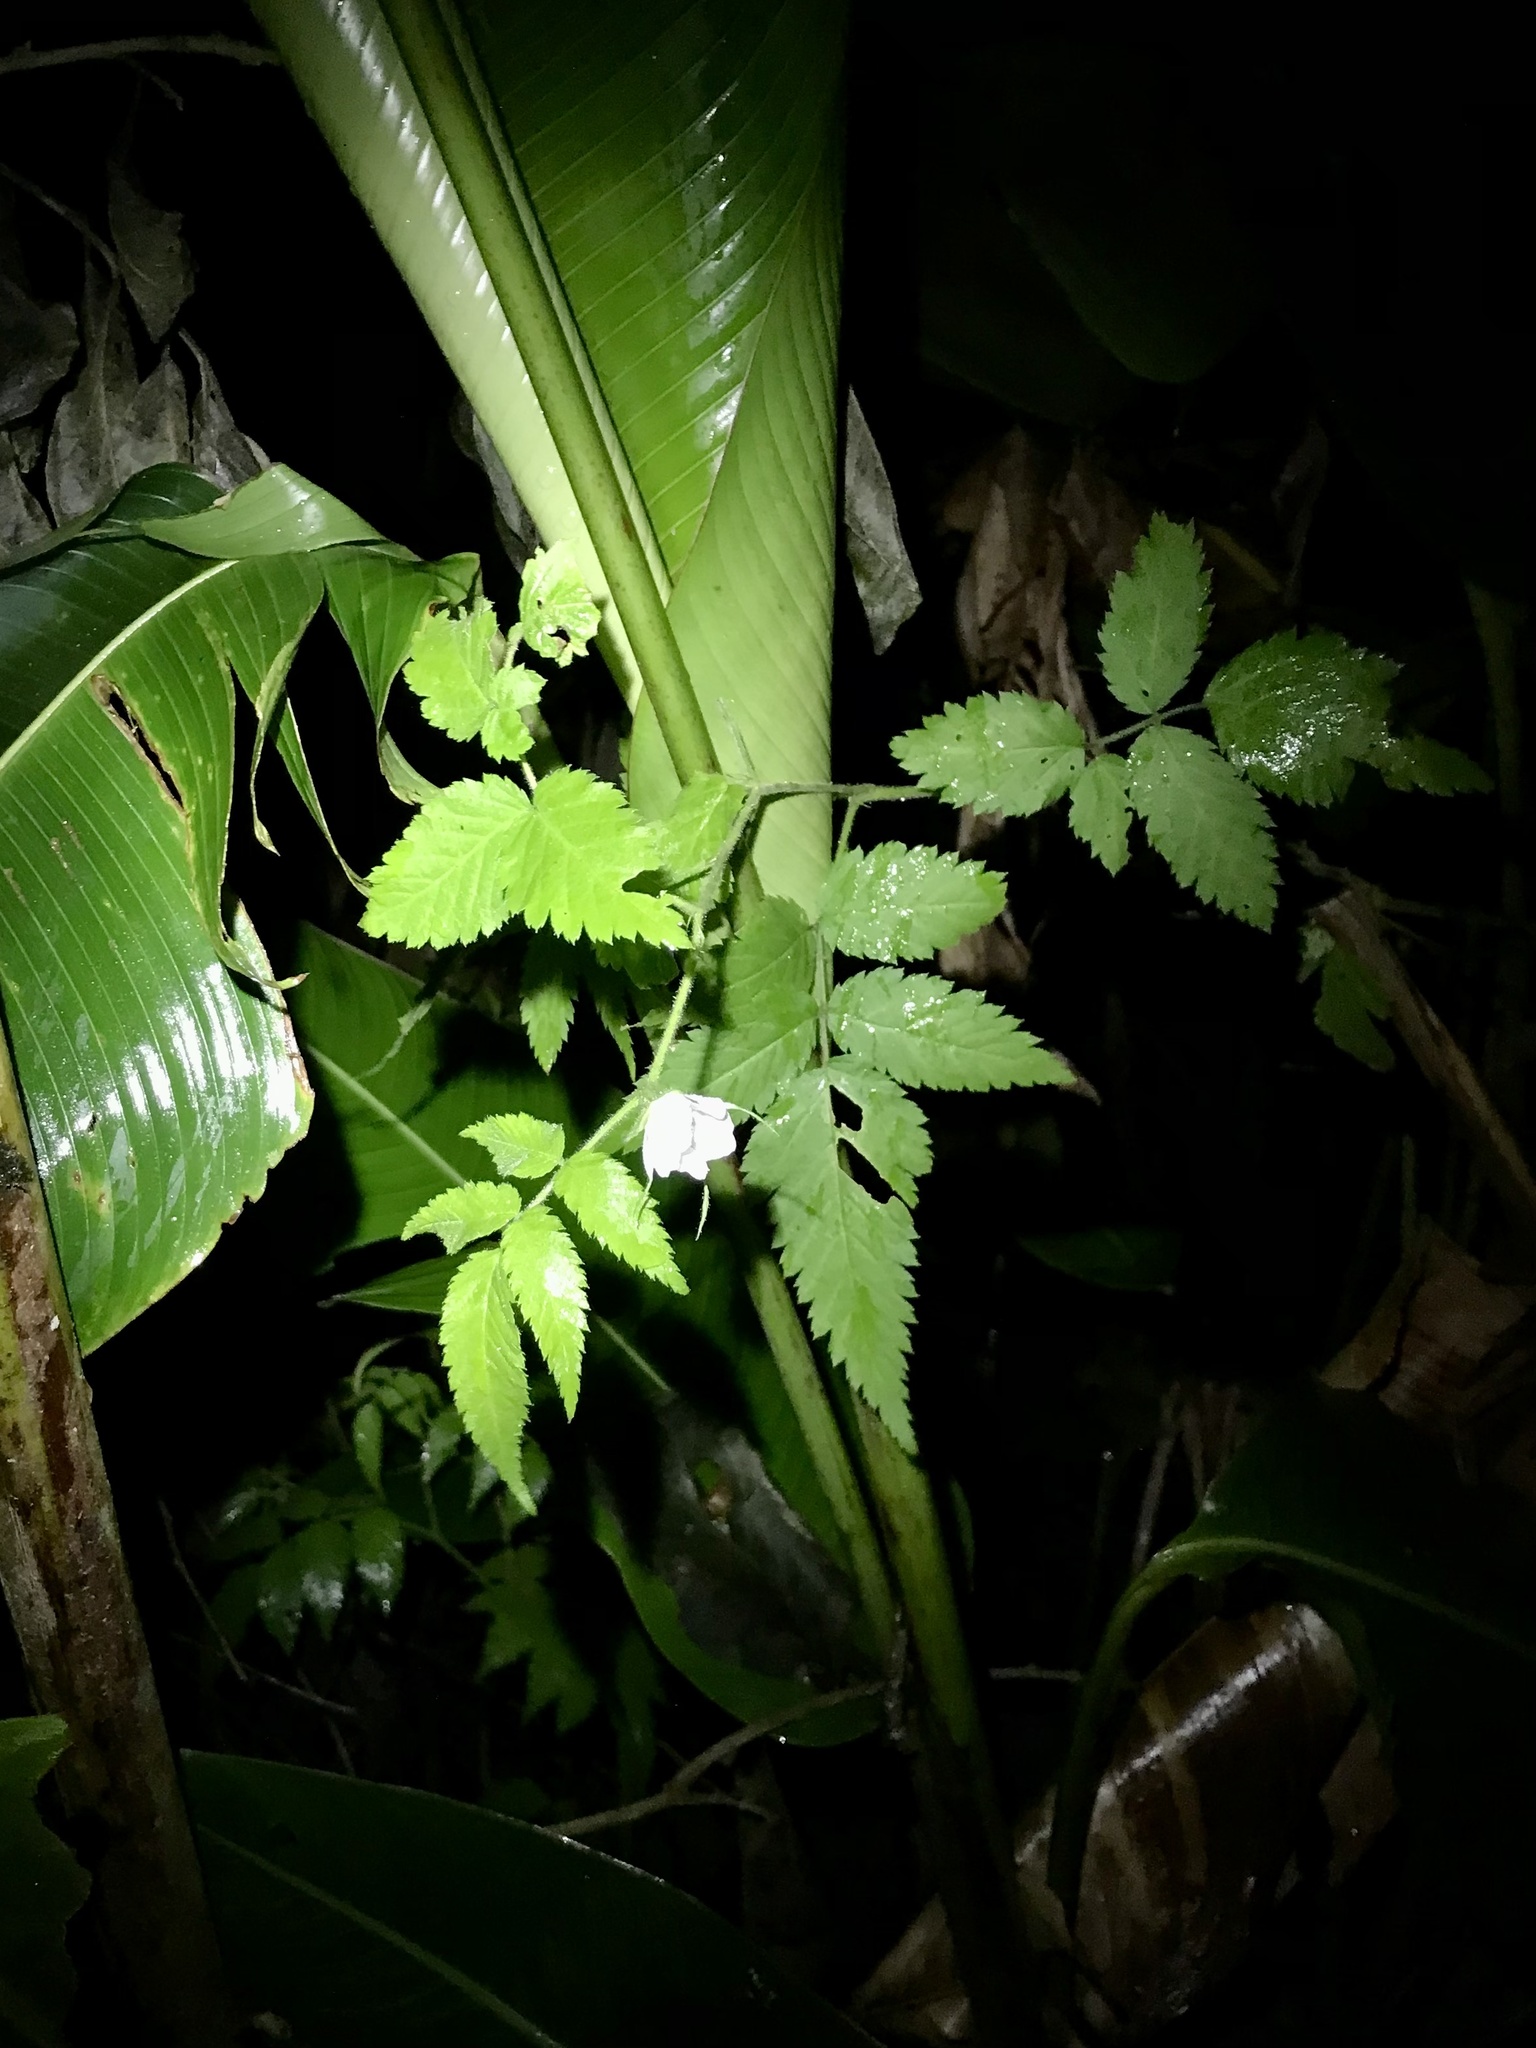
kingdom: Plantae
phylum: Tracheophyta
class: Magnoliopsida
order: Rosales
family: Rosaceae
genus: Rubus
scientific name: Rubus rosifolius
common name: Roseleaf raspberry
